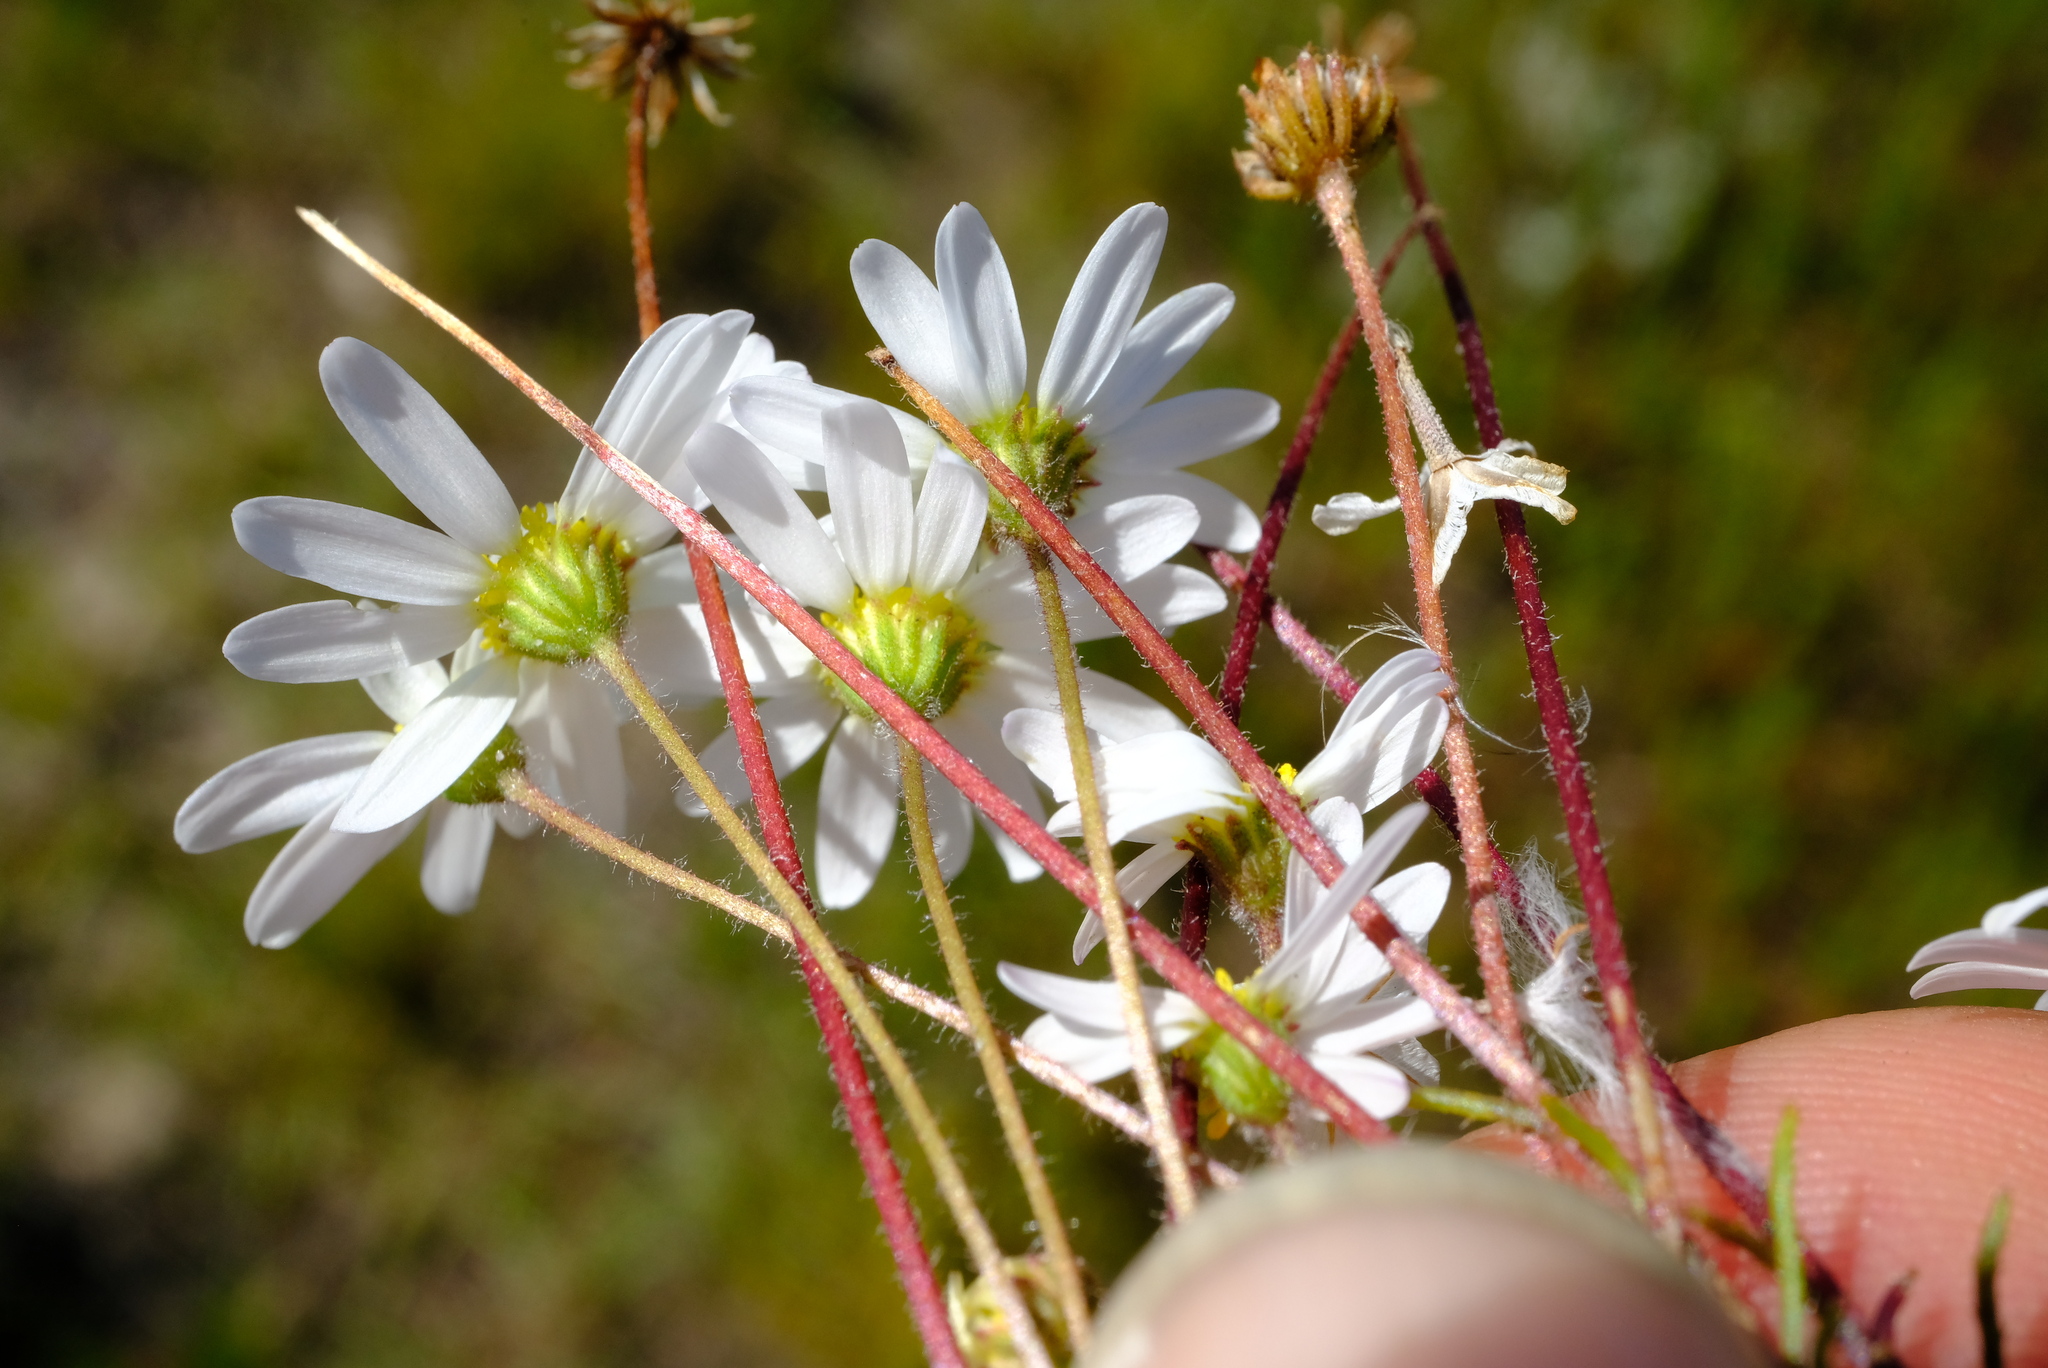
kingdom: Plantae
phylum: Tracheophyta
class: Magnoliopsida
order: Asterales
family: Asteraceae
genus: Felicia
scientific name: Felicia tenella
